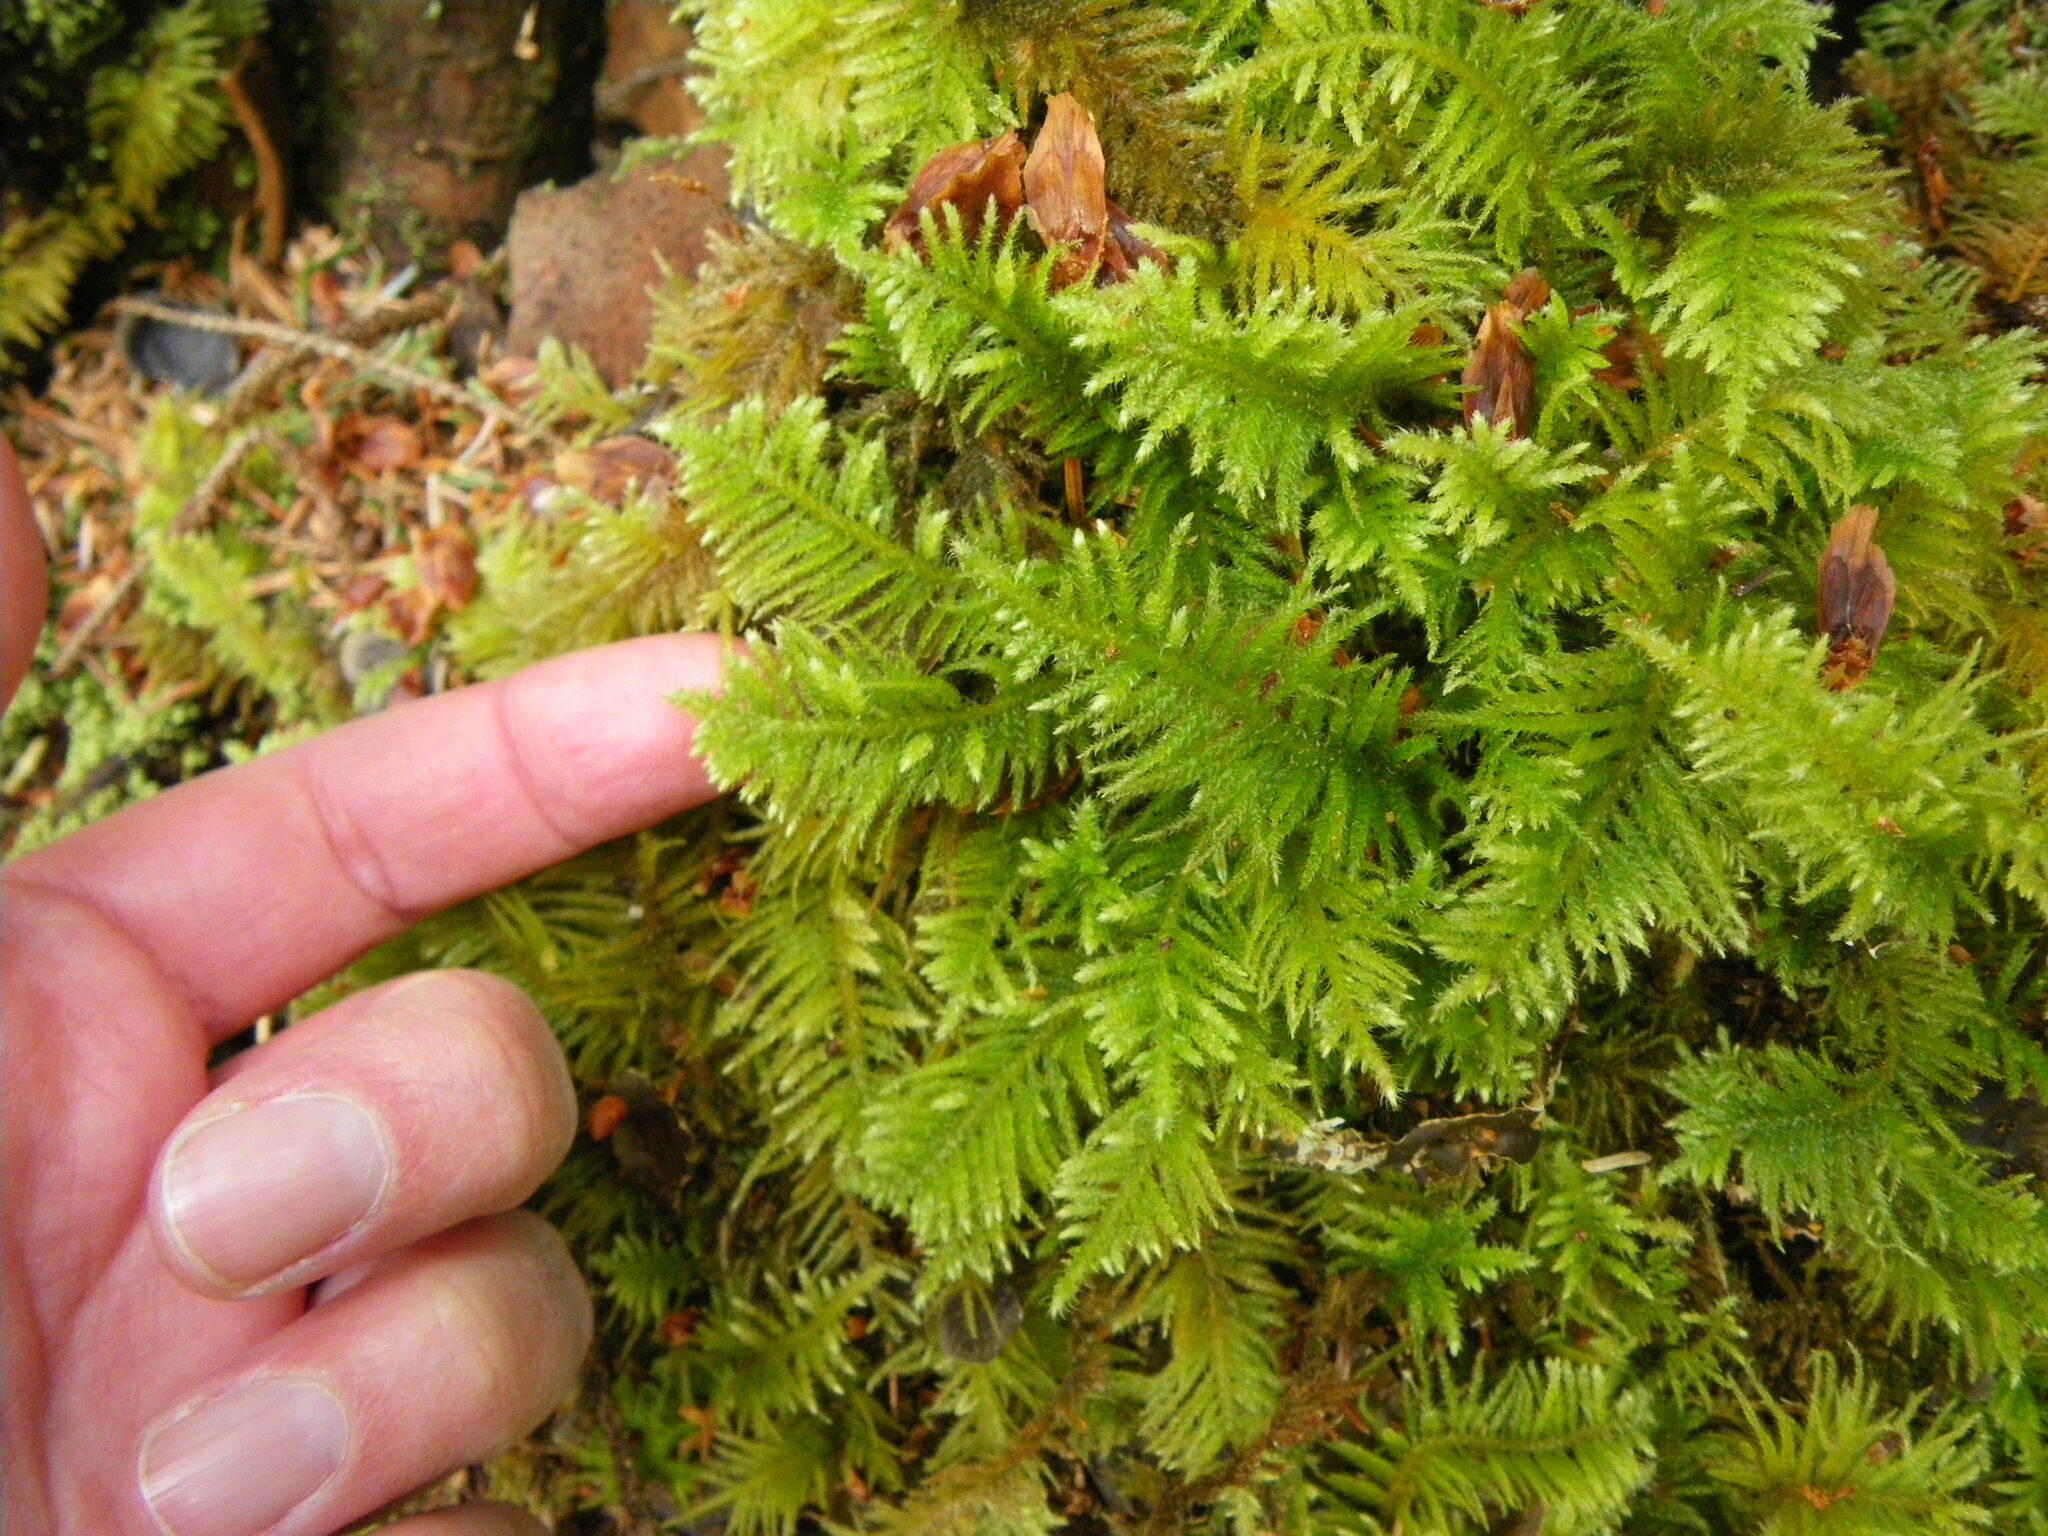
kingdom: Plantae
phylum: Bryophyta
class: Bryopsida
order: Hypnales
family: Brachytheciaceae
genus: Kindbergia
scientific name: Kindbergia oregana
